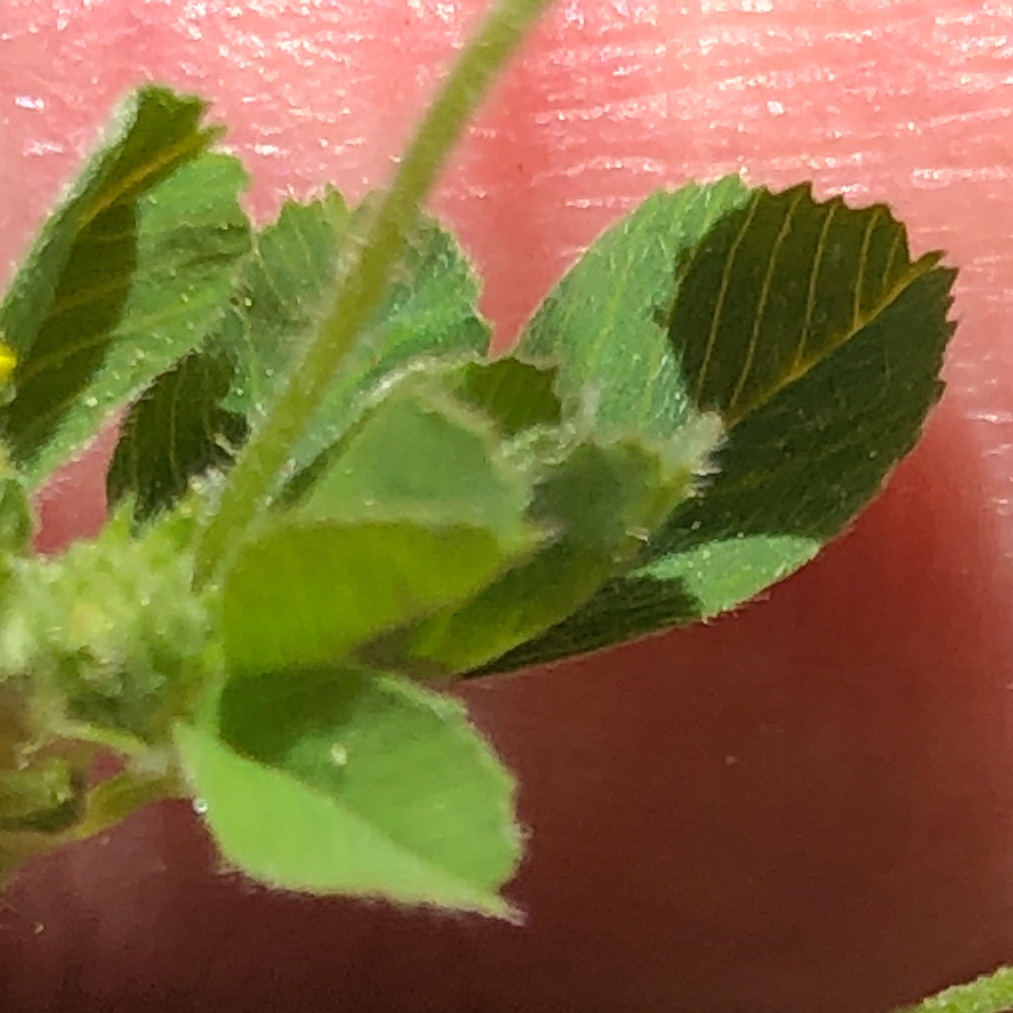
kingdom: Plantae
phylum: Tracheophyta
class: Magnoliopsida
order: Fabales
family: Fabaceae
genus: Medicago
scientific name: Medicago lupulina
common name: Black medick
